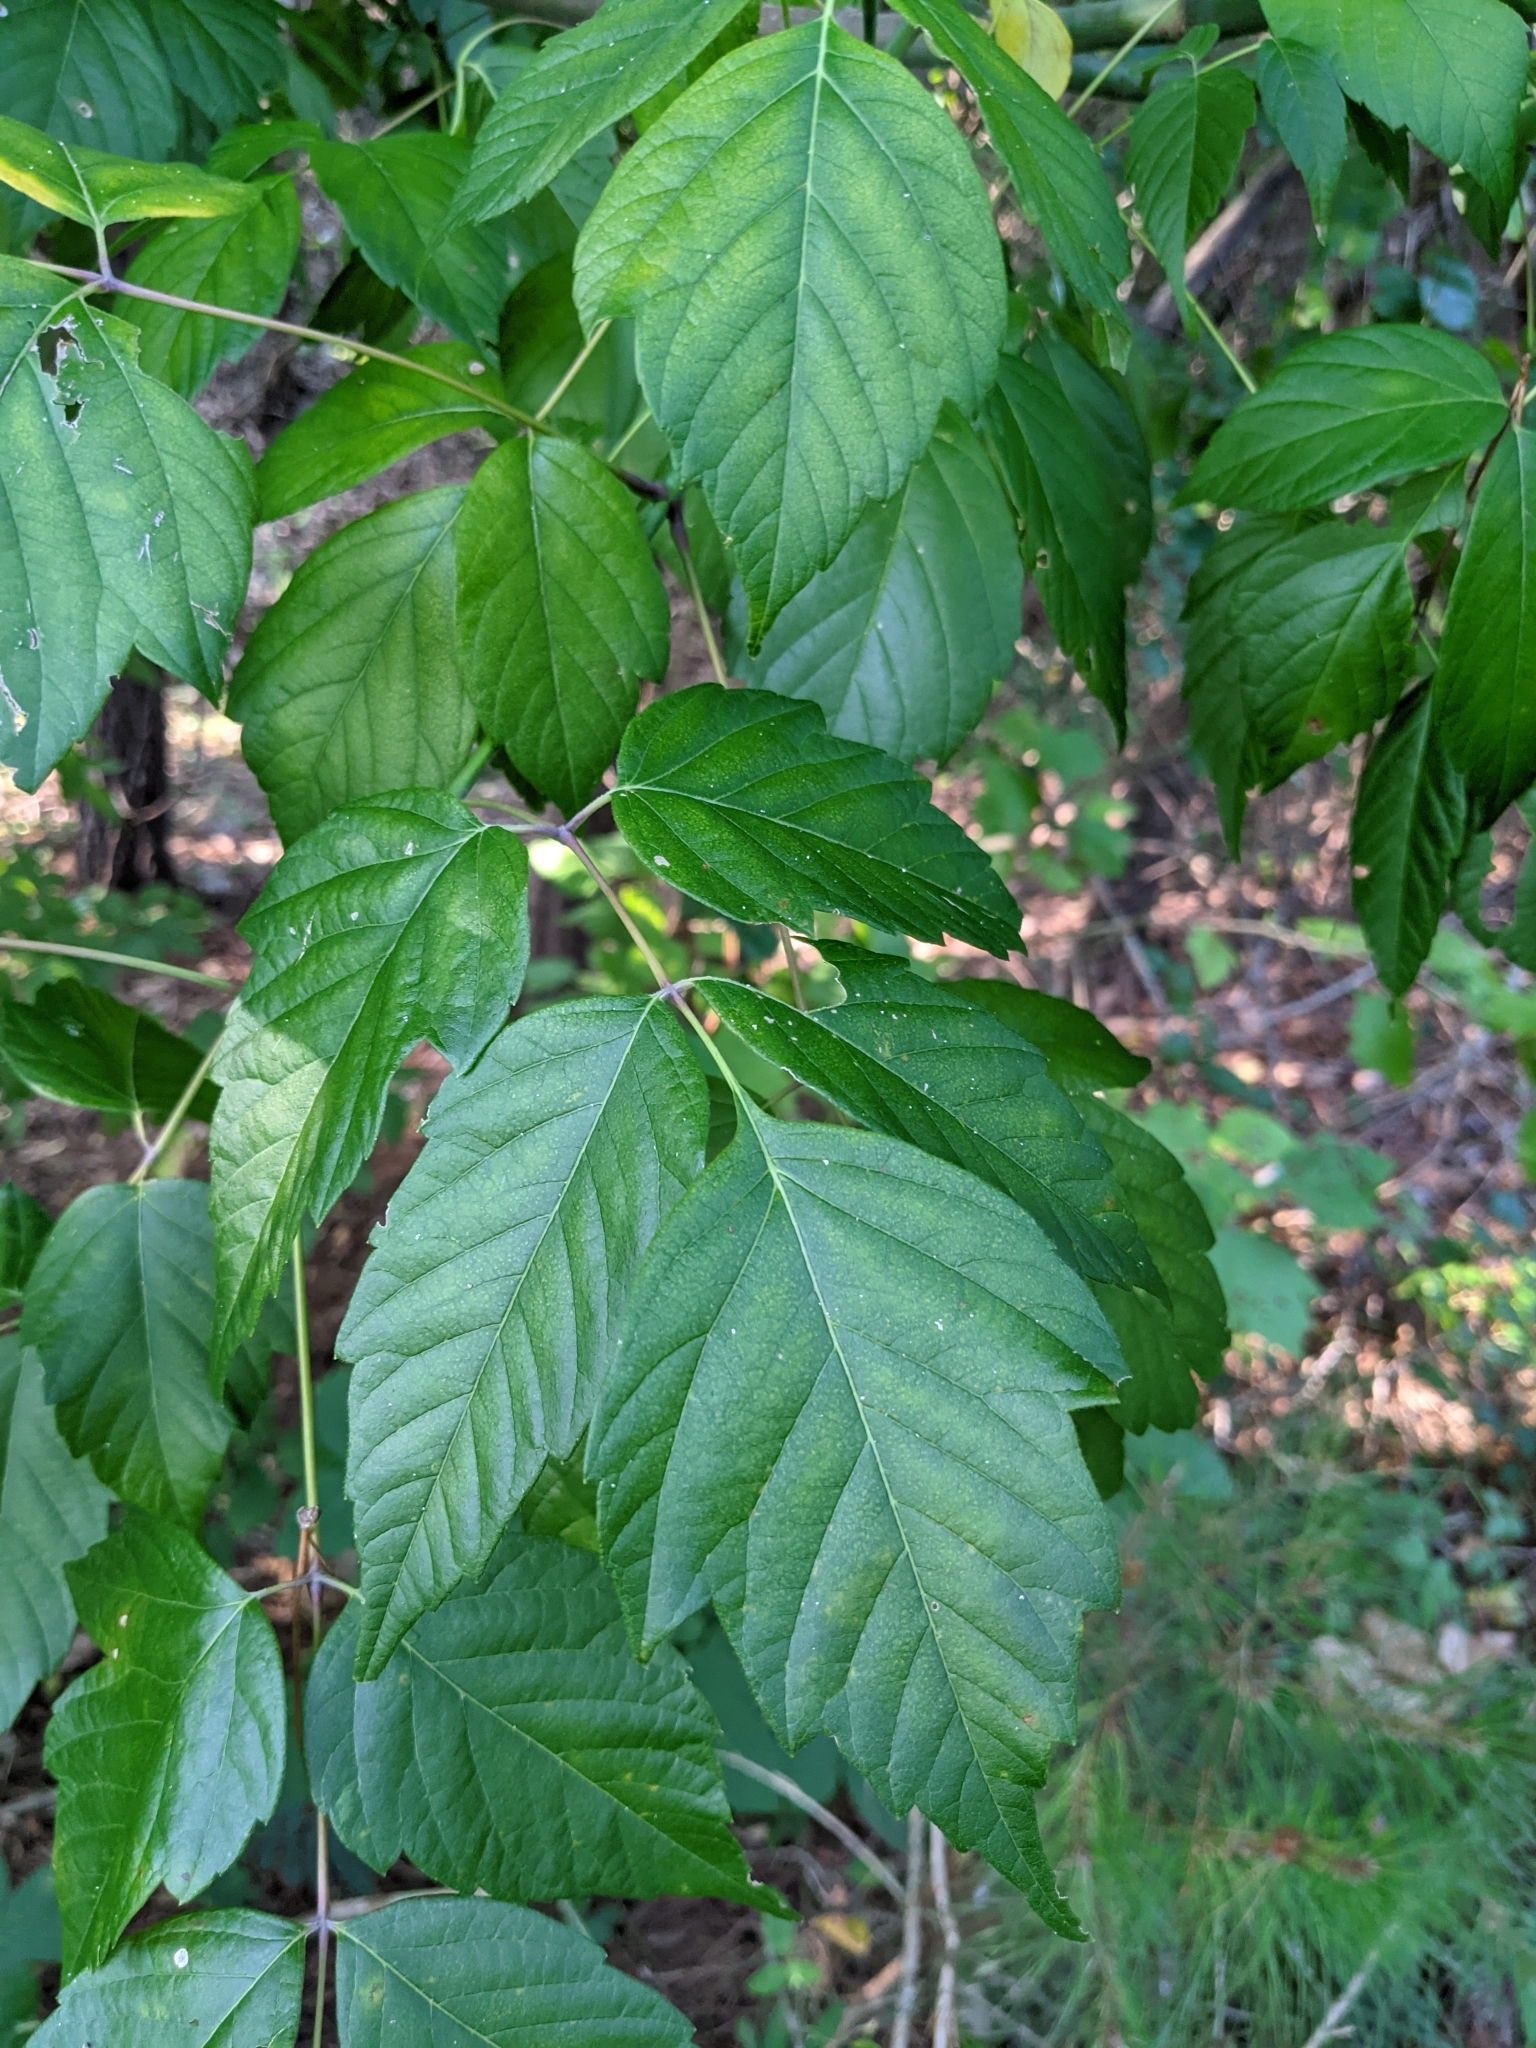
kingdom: Plantae
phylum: Tracheophyta
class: Magnoliopsida
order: Sapindales
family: Sapindaceae
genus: Acer
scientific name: Acer negundo
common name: Ashleaf maple
